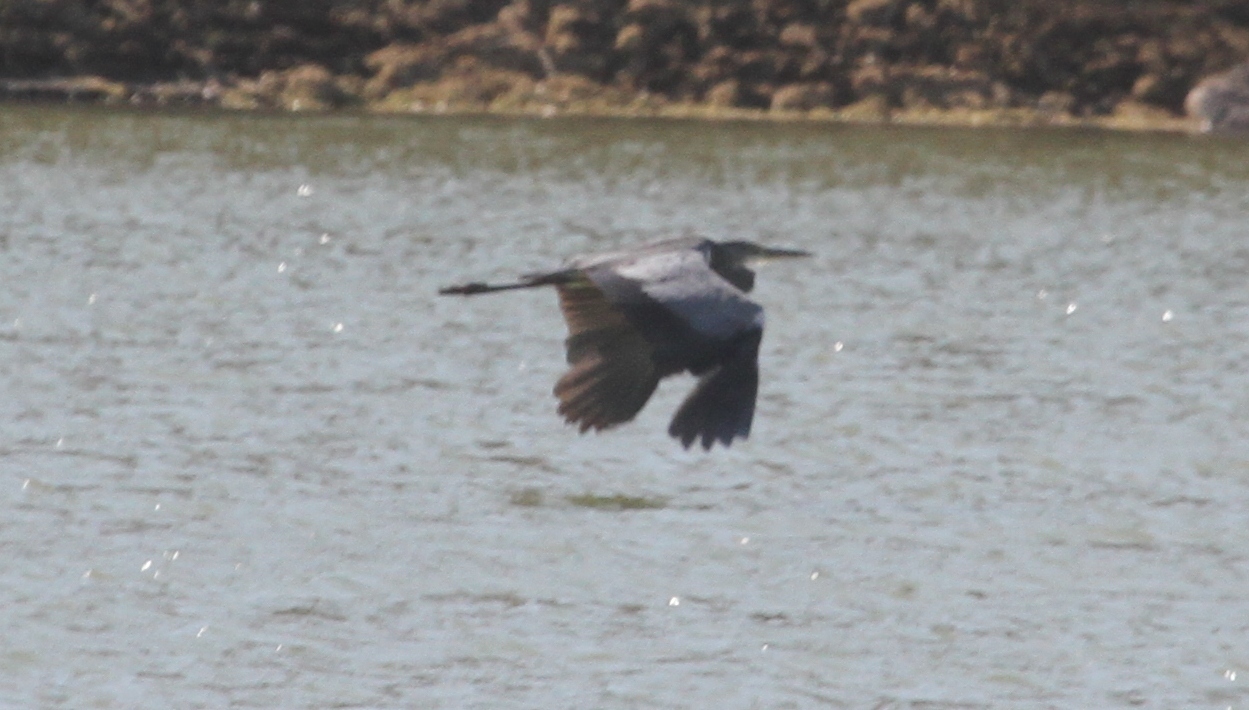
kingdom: Animalia
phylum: Chordata
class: Aves
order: Pelecaniformes
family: Ardeidae
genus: Ardea
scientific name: Ardea cinerea
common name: Grey heron
